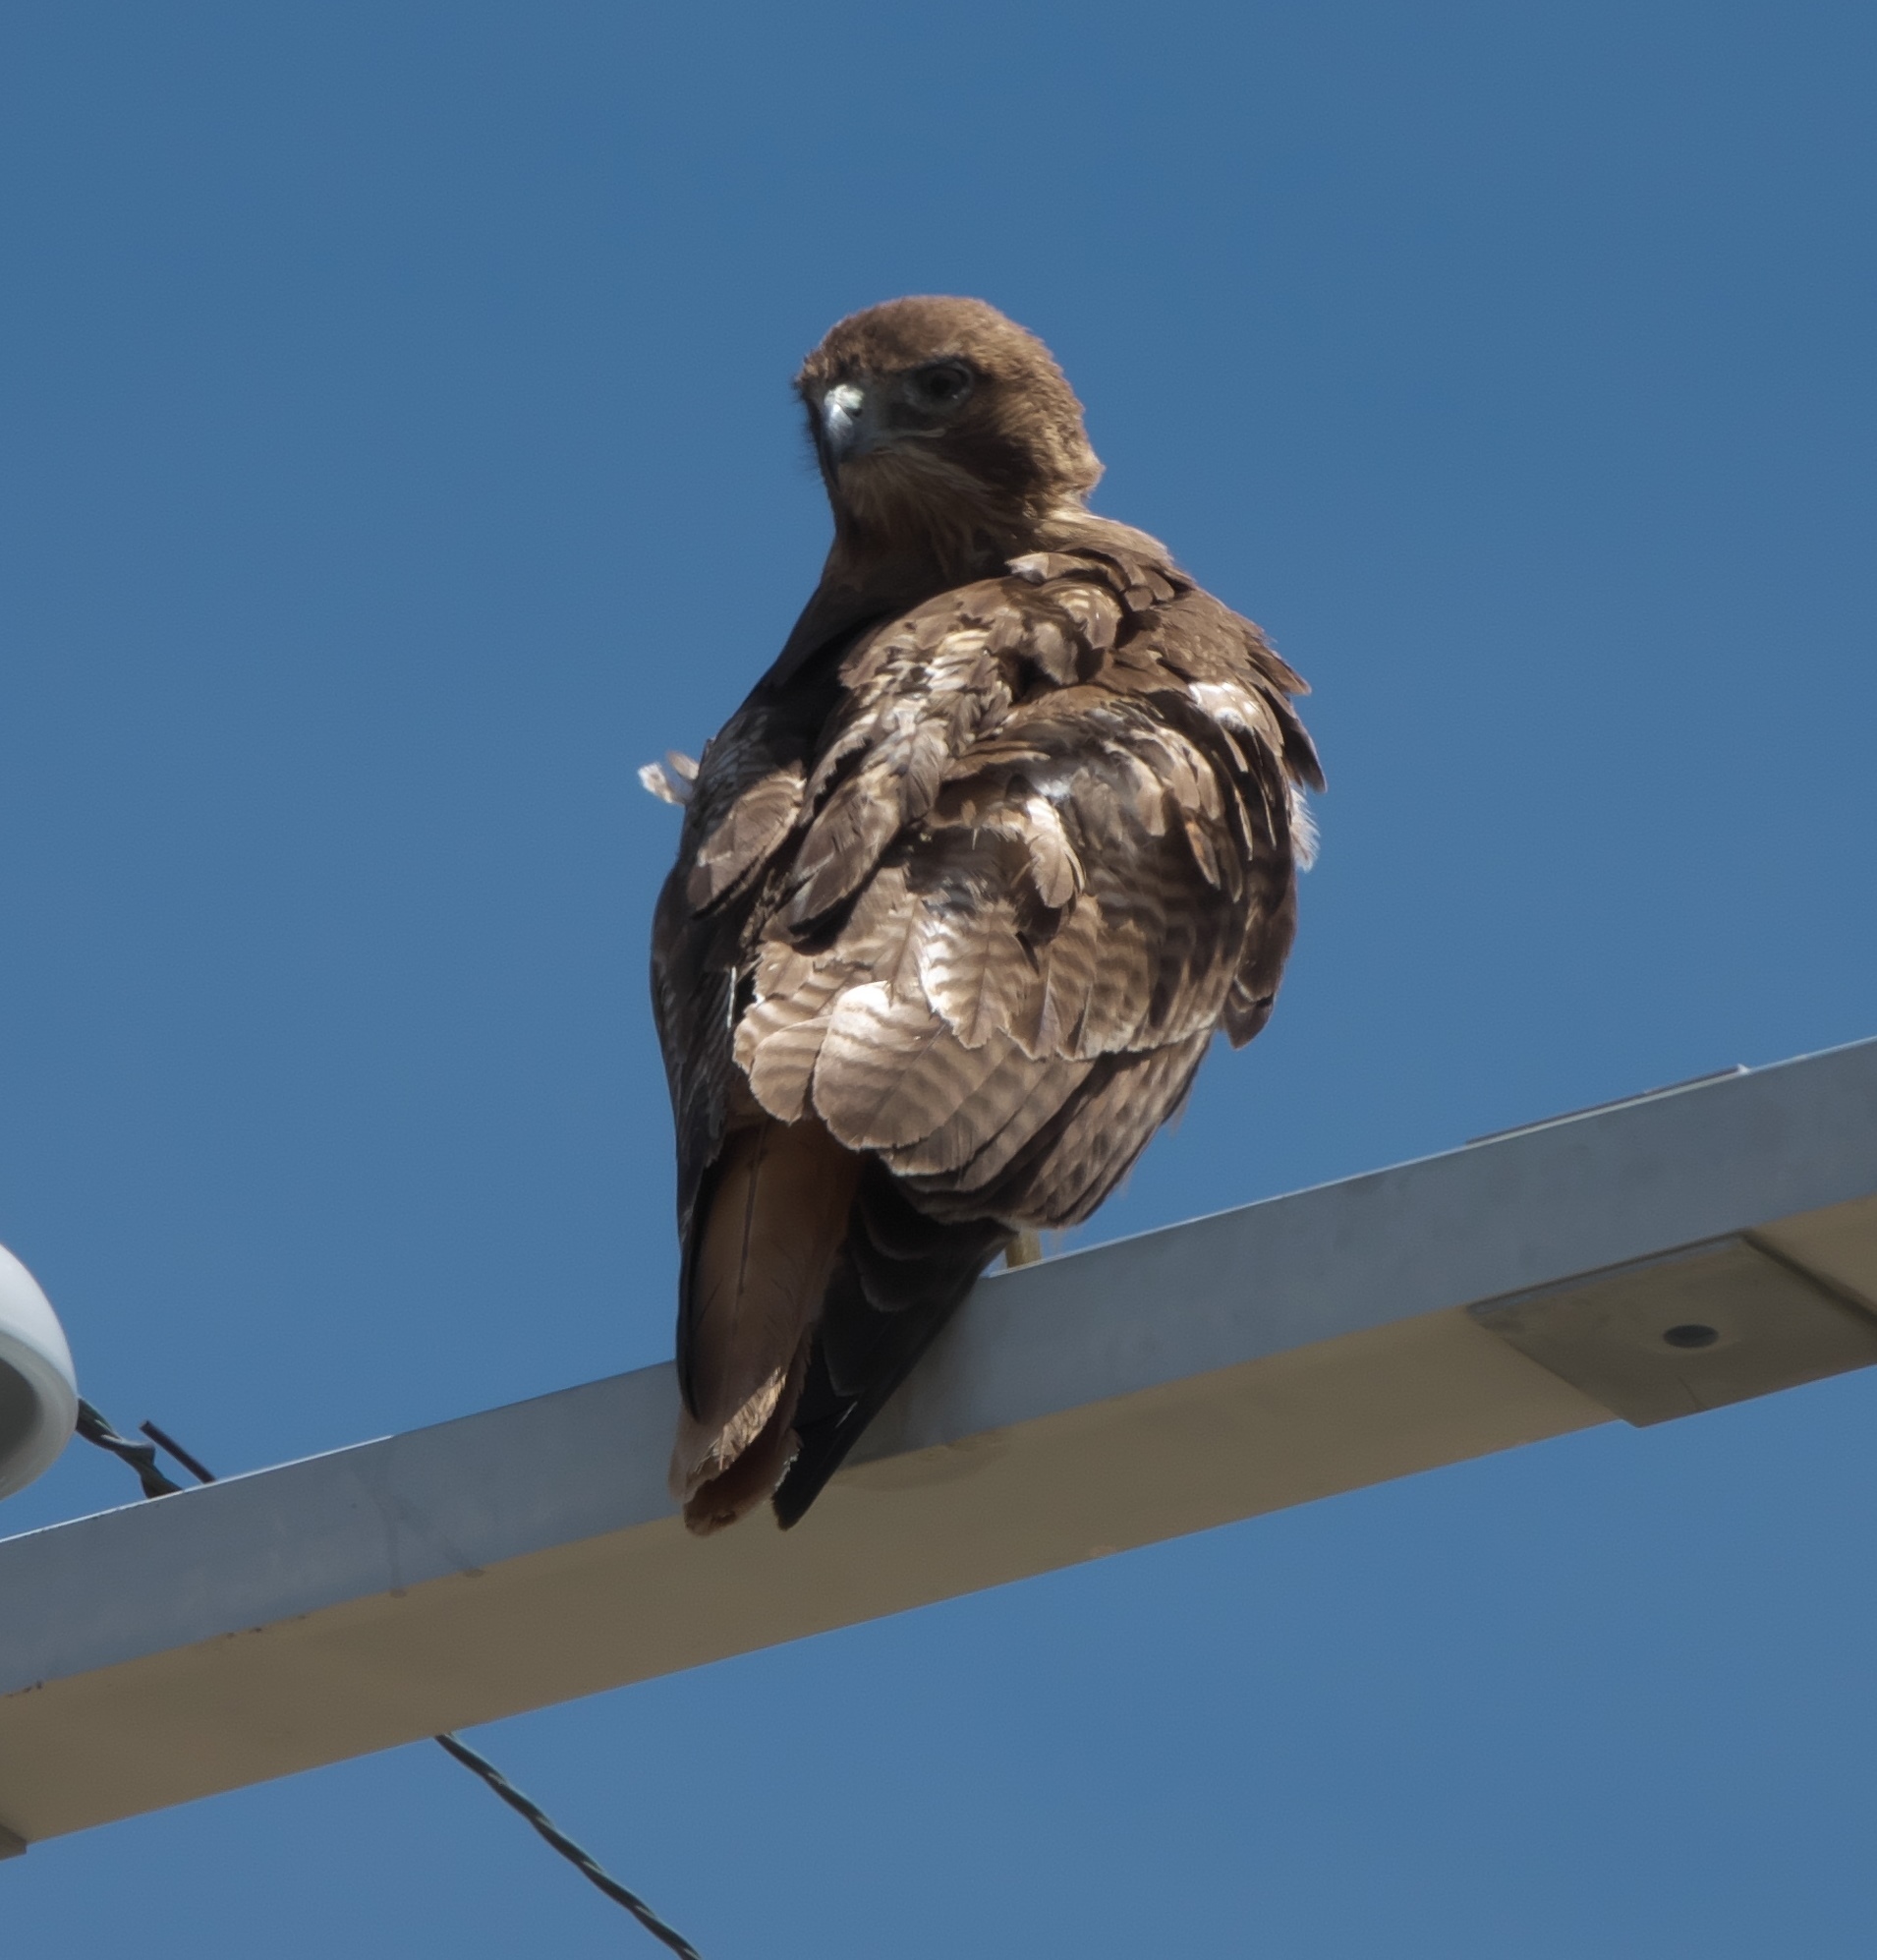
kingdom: Animalia
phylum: Chordata
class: Aves
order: Accipitriformes
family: Accipitridae
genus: Buteo
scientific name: Buteo jamaicensis
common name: Red-tailed hawk
